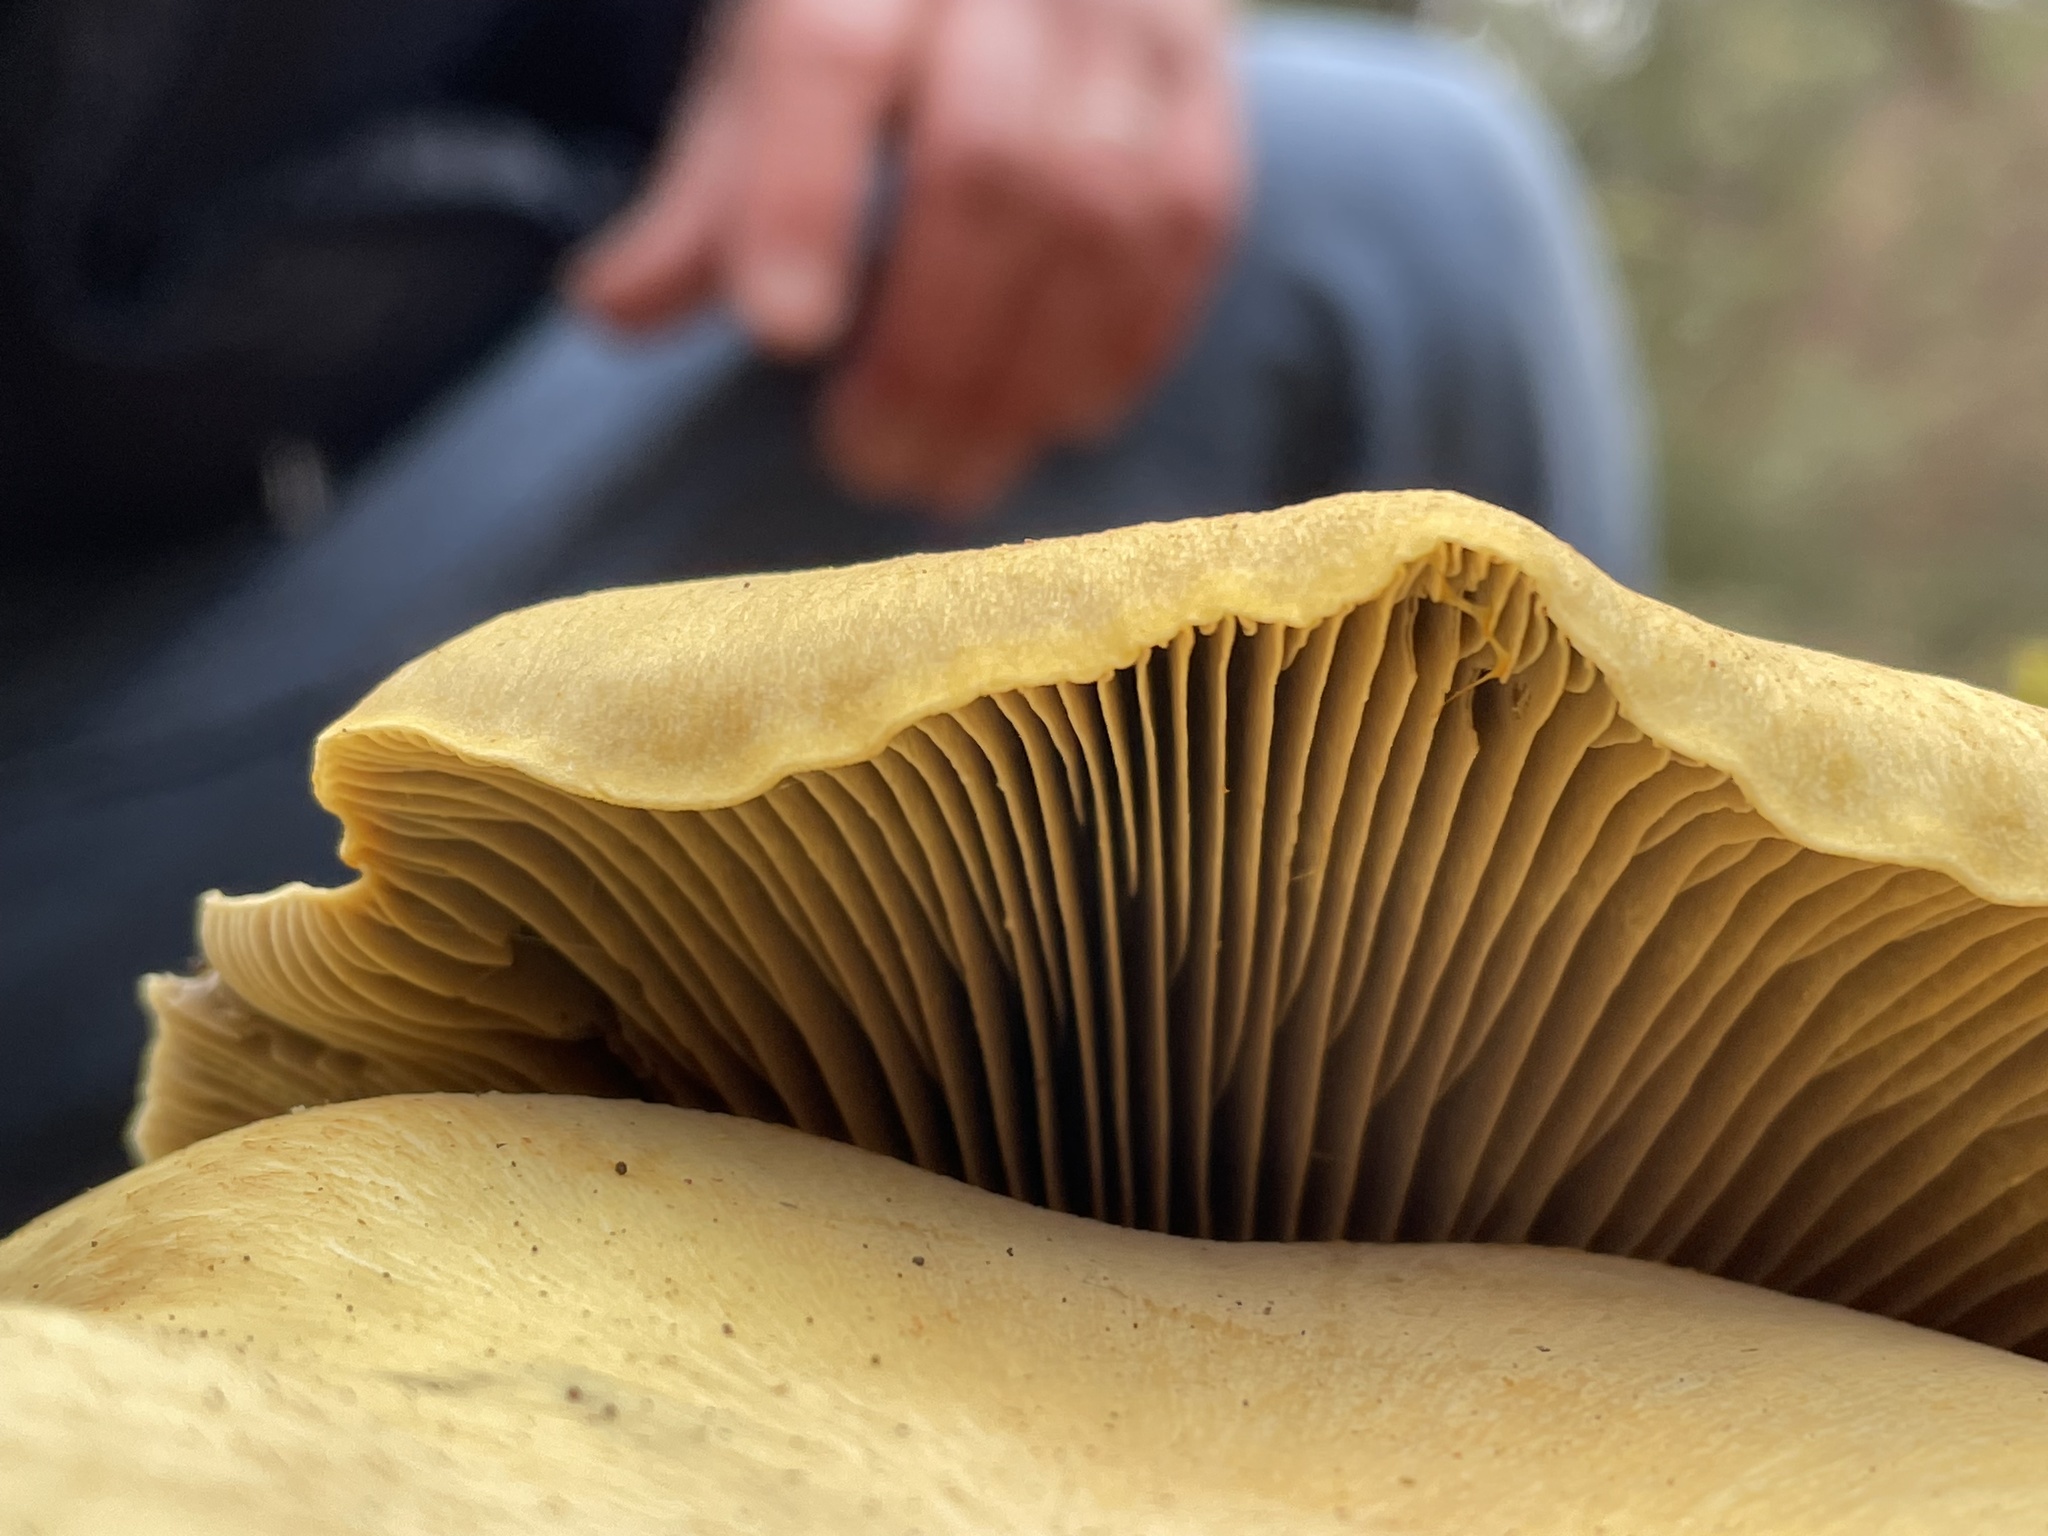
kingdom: Fungi
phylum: Basidiomycota
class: Agaricomycetes
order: Agaricales
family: Omphalotaceae
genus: Omphalotus
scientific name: Omphalotus olivascens
